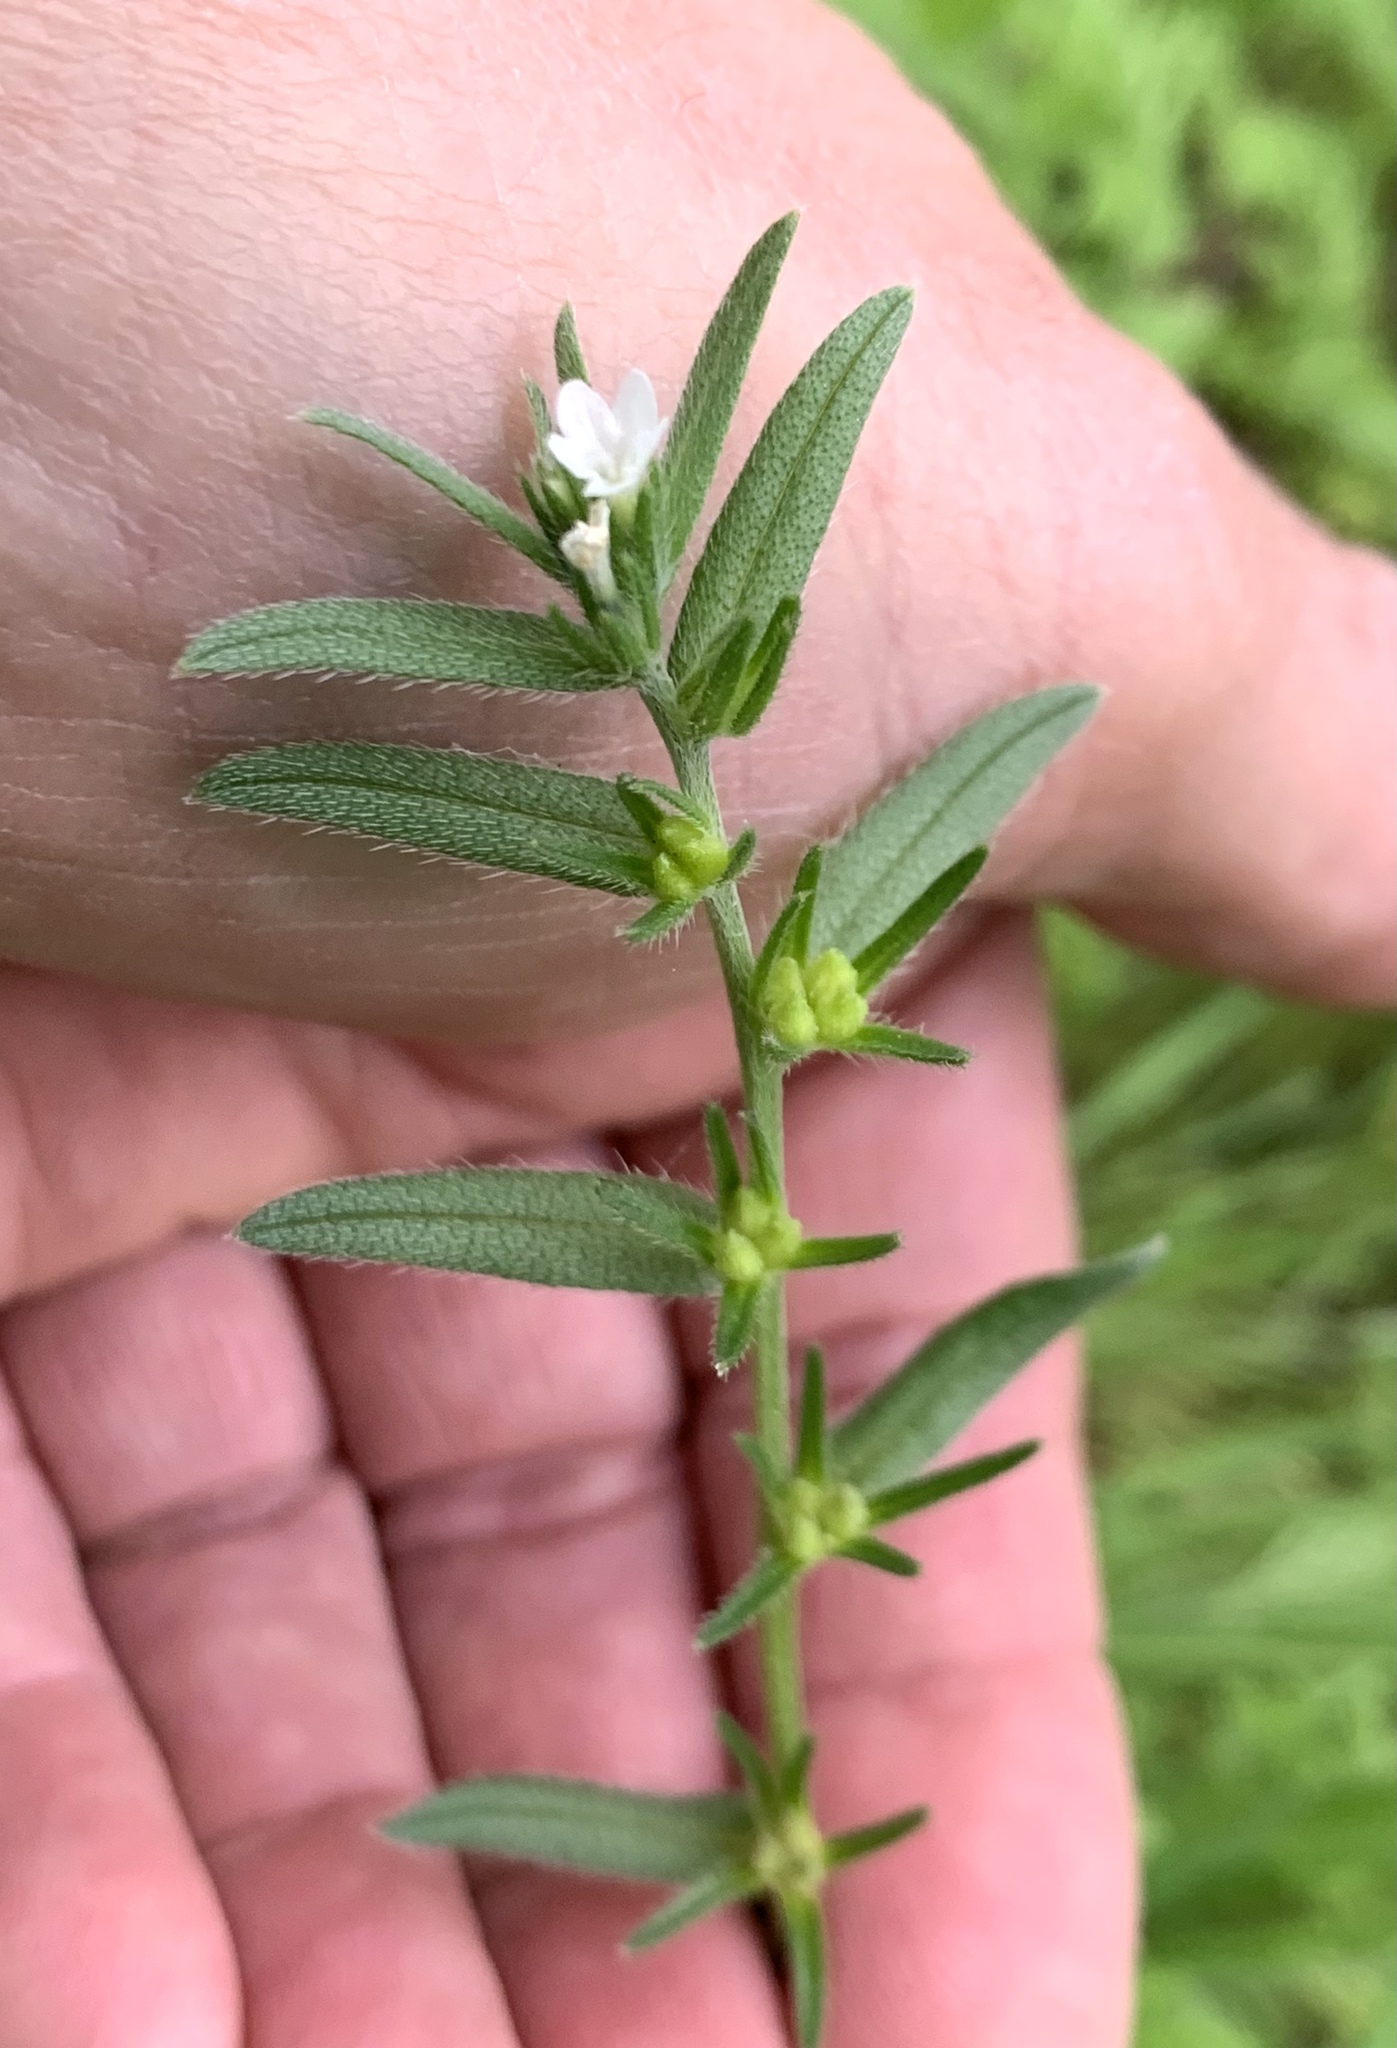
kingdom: Plantae
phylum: Tracheophyta
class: Magnoliopsida
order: Boraginales
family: Boraginaceae
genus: Buglossoides
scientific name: Buglossoides arvensis
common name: Corn gromwell
